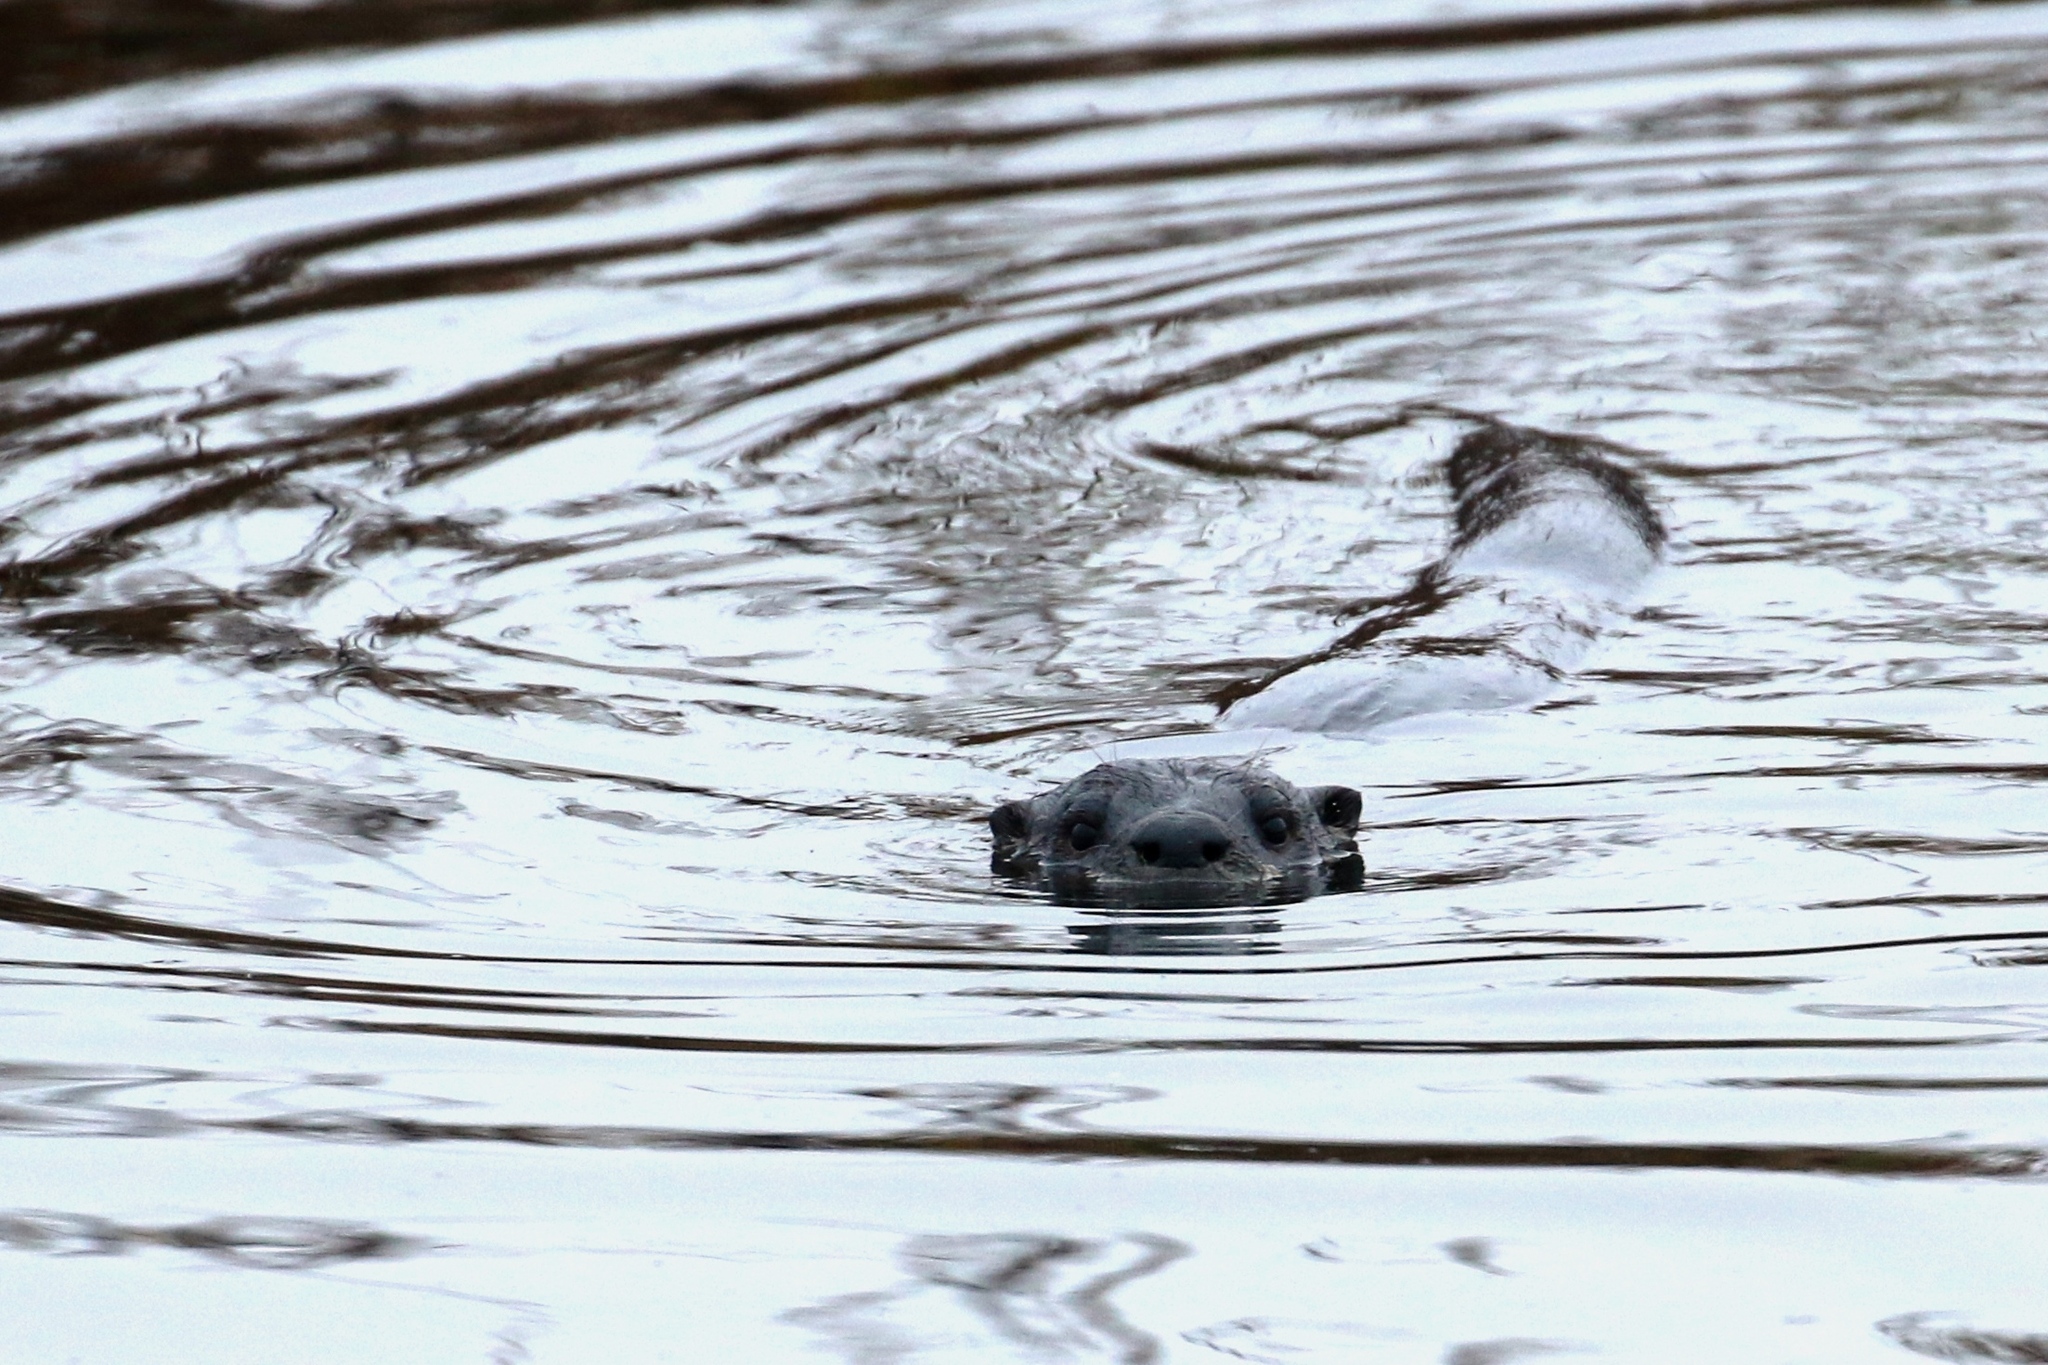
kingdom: Animalia
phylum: Chordata
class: Mammalia
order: Carnivora
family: Mustelidae
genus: Lontra
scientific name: Lontra canadensis
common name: North american river otter
